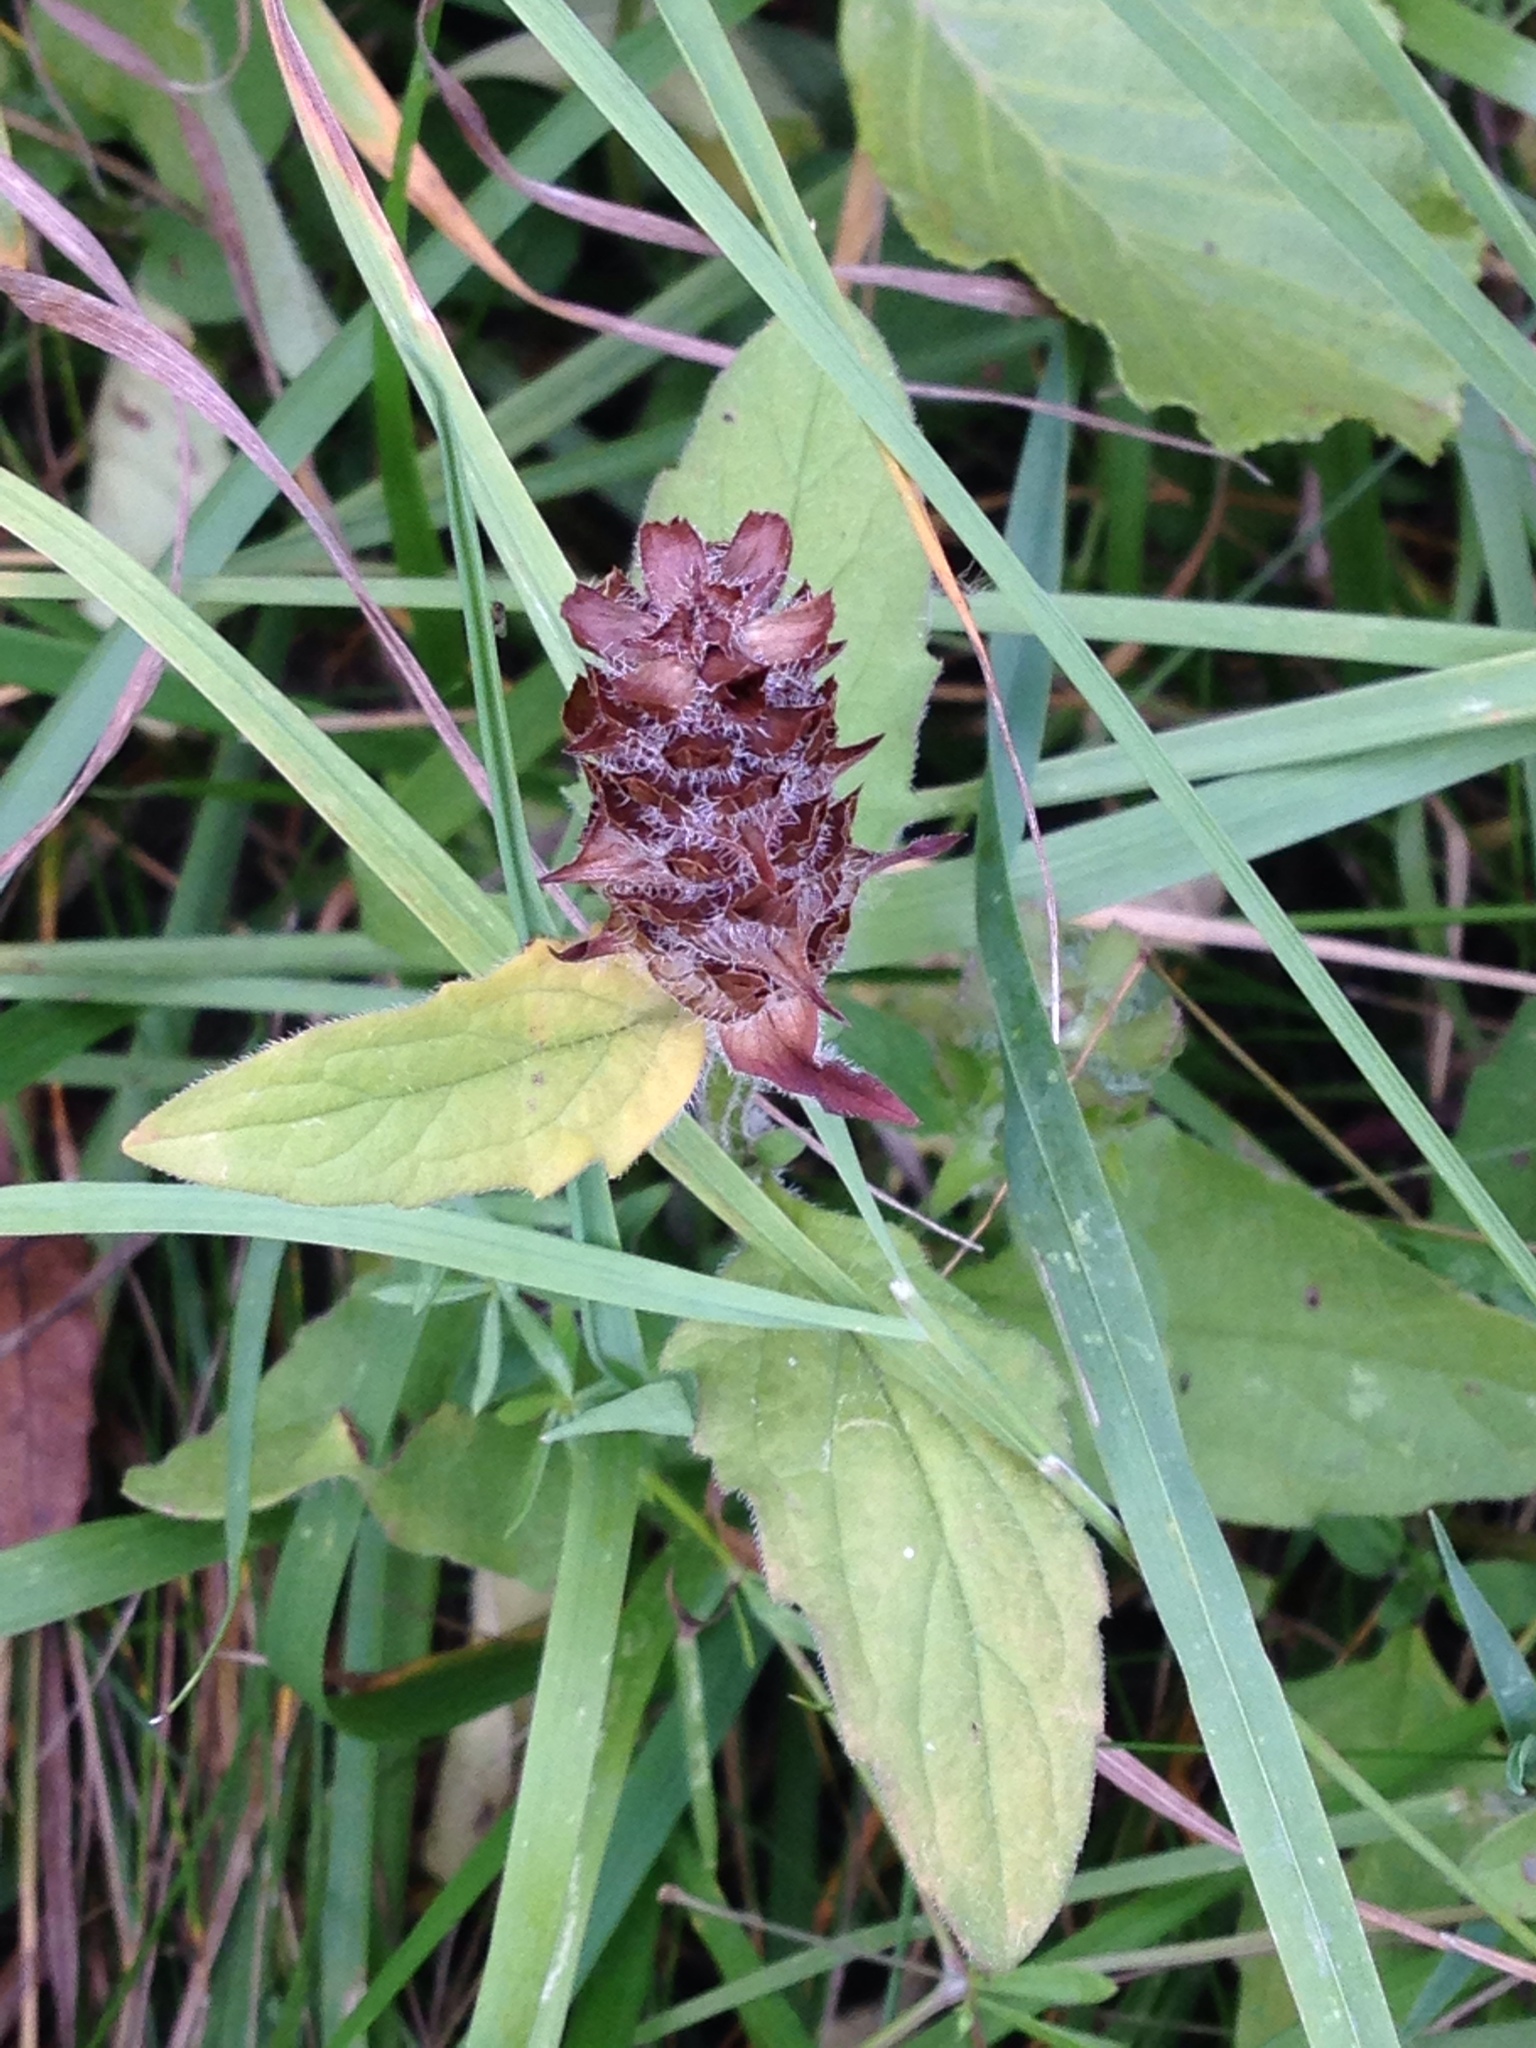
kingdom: Plantae
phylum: Tracheophyta
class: Magnoliopsida
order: Lamiales
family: Lamiaceae
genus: Prunella
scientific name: Prunella vulgaris
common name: Heal-all
